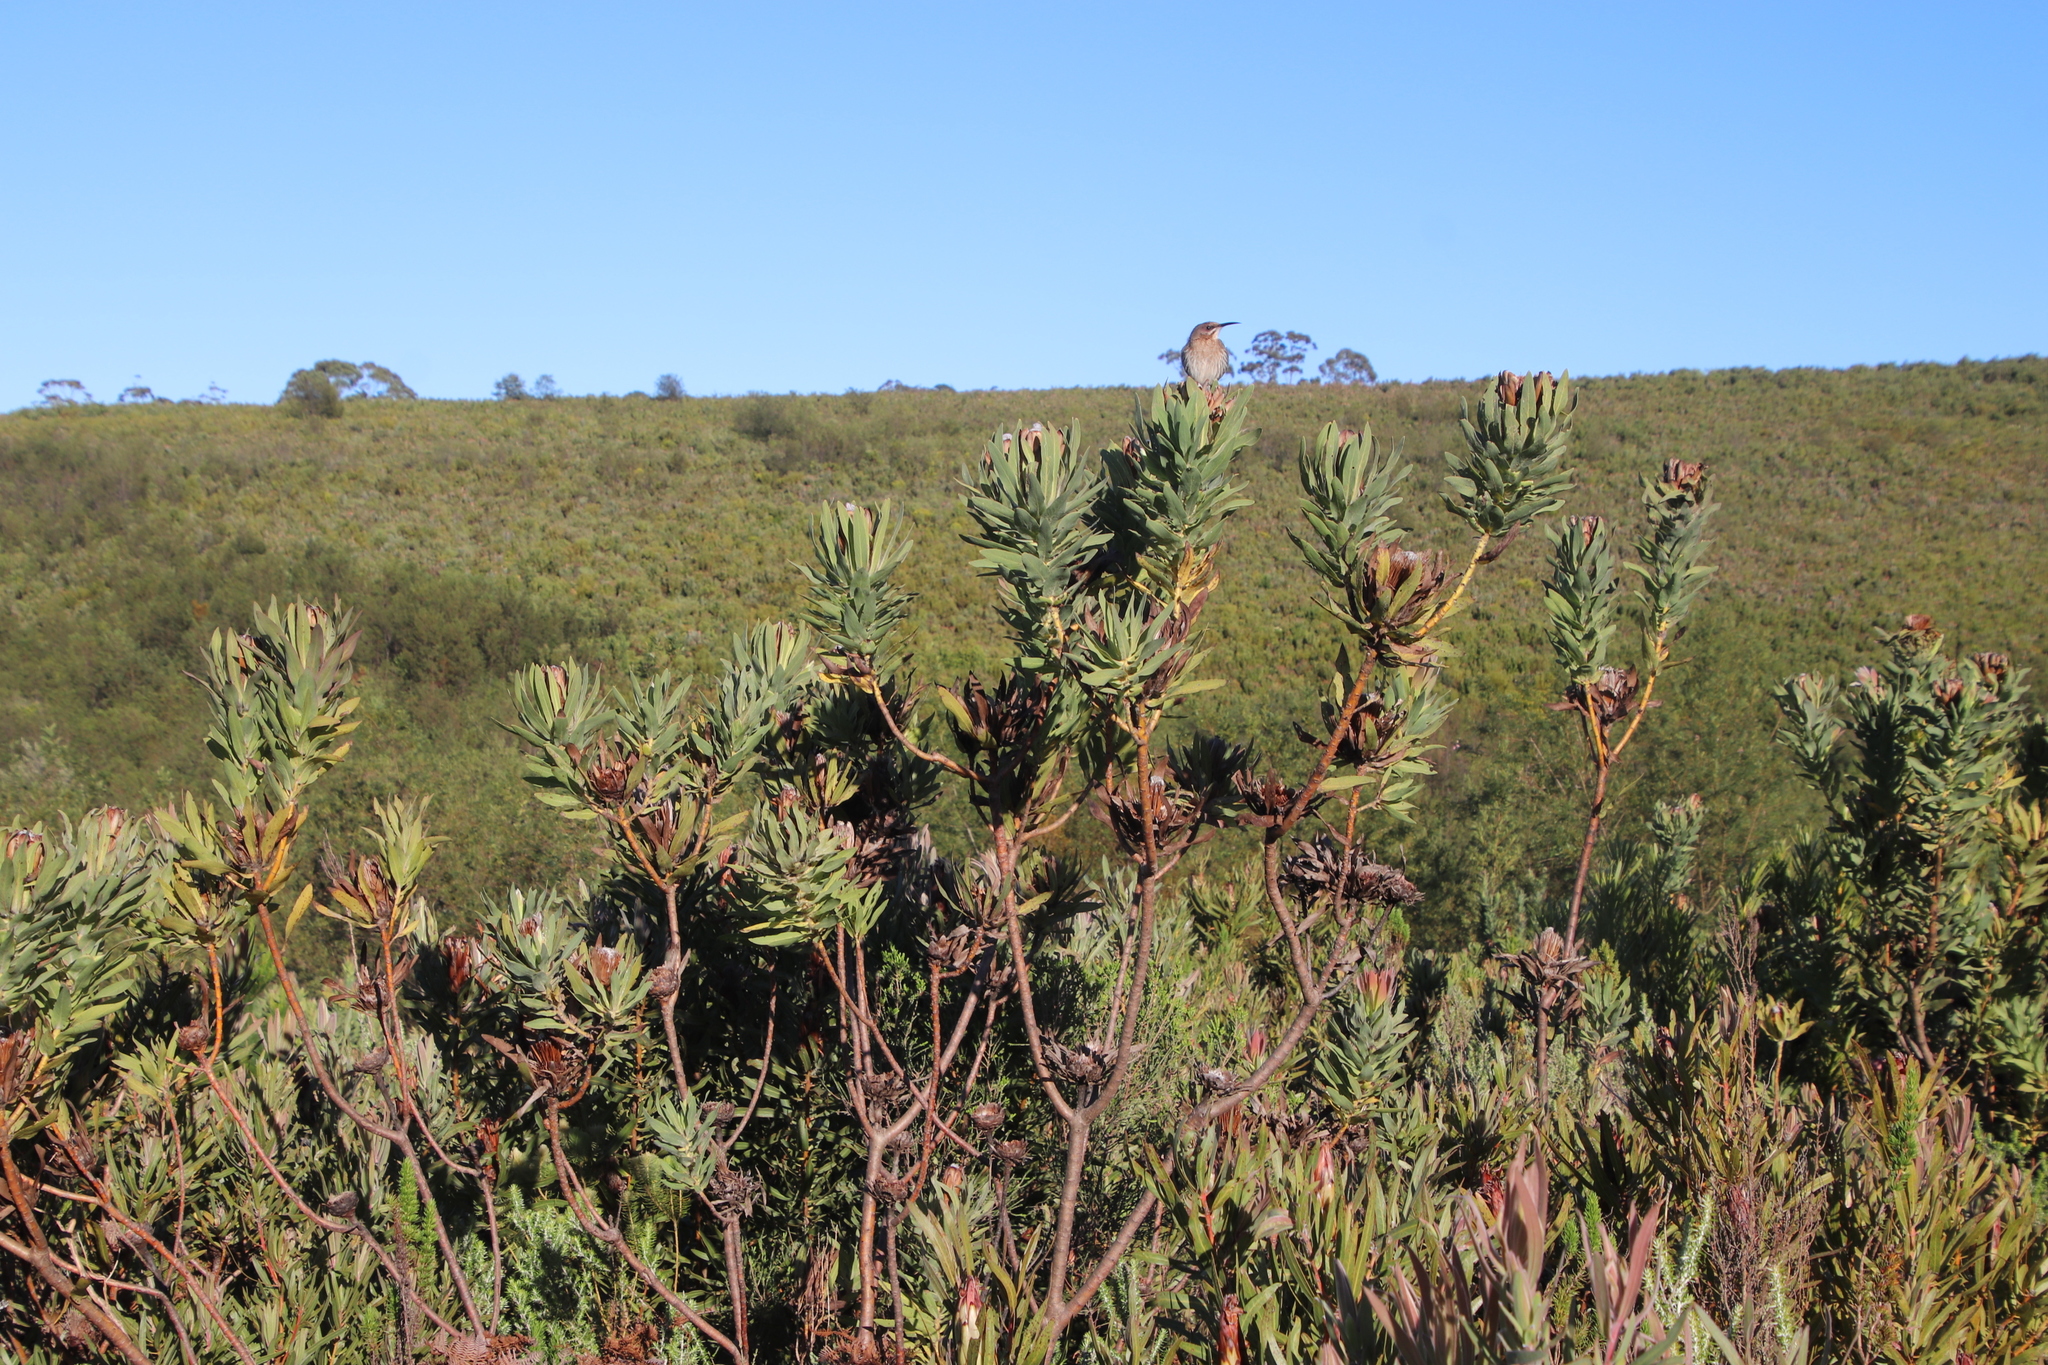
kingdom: Plantae
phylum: Tracheophyta
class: Magnoliopsida
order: Proteales
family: Proteaceae
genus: Protea
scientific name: Protea coronata
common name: Green sugarbush
